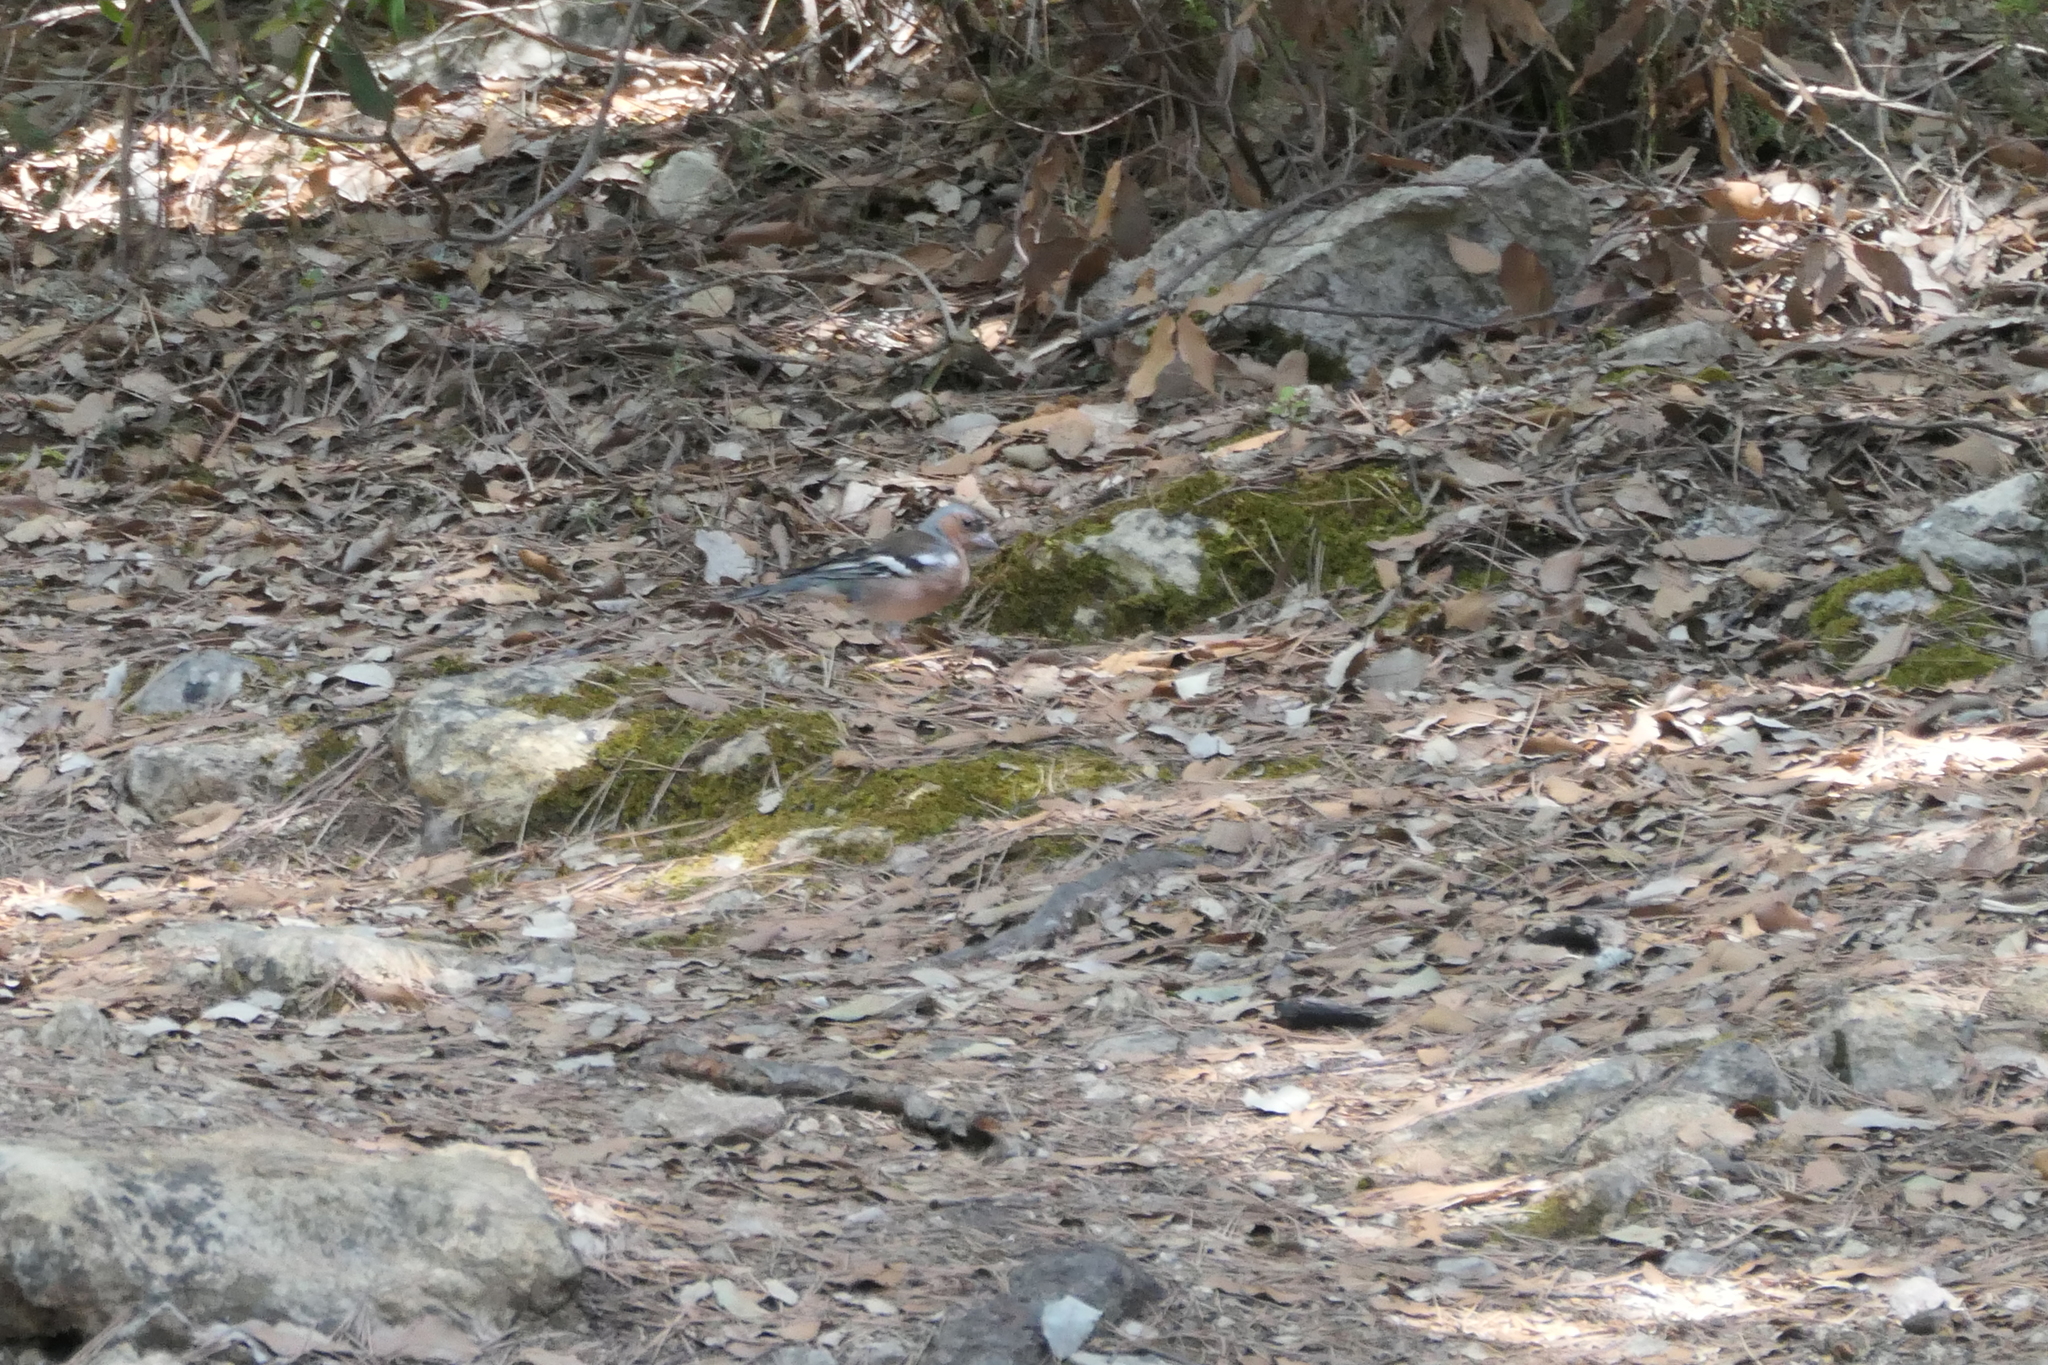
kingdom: Animalia
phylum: Chordata
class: Aves
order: Passeriformes
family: Fringillidae
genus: Fringilla
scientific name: Fringilla coelebs
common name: Common chaffinch
